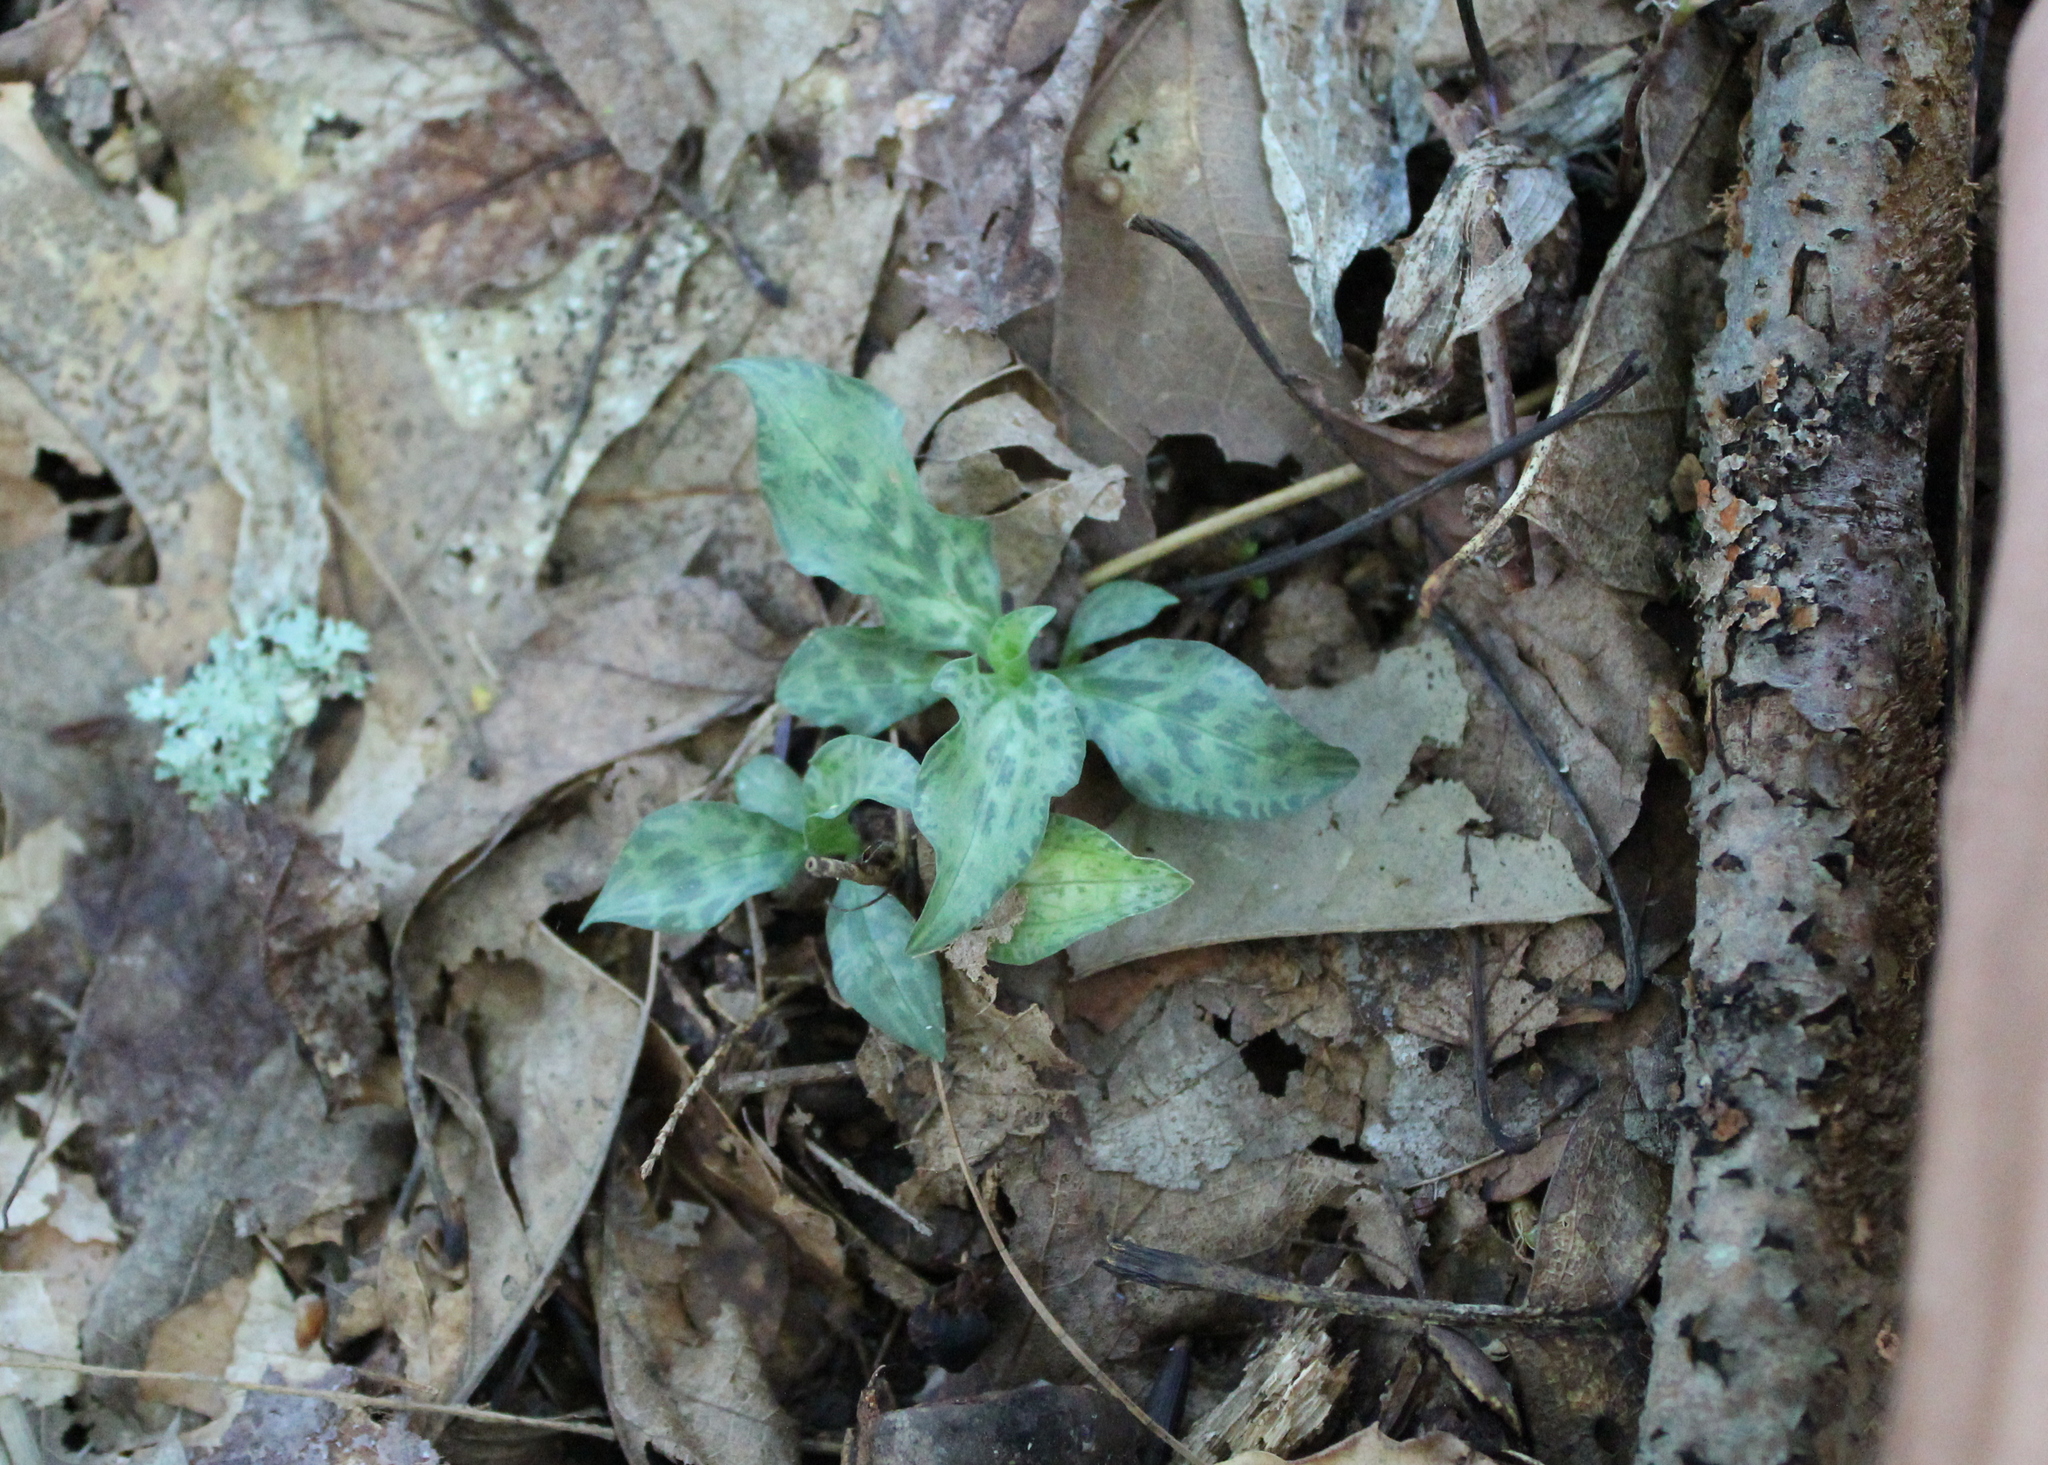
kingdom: Plantae
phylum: Tracheophyta
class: Liliopsida
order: Asparagales
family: Orchidaceae
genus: Goodyera
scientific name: Goodyera tesselata
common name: Checkered rattlesnake-plantain
